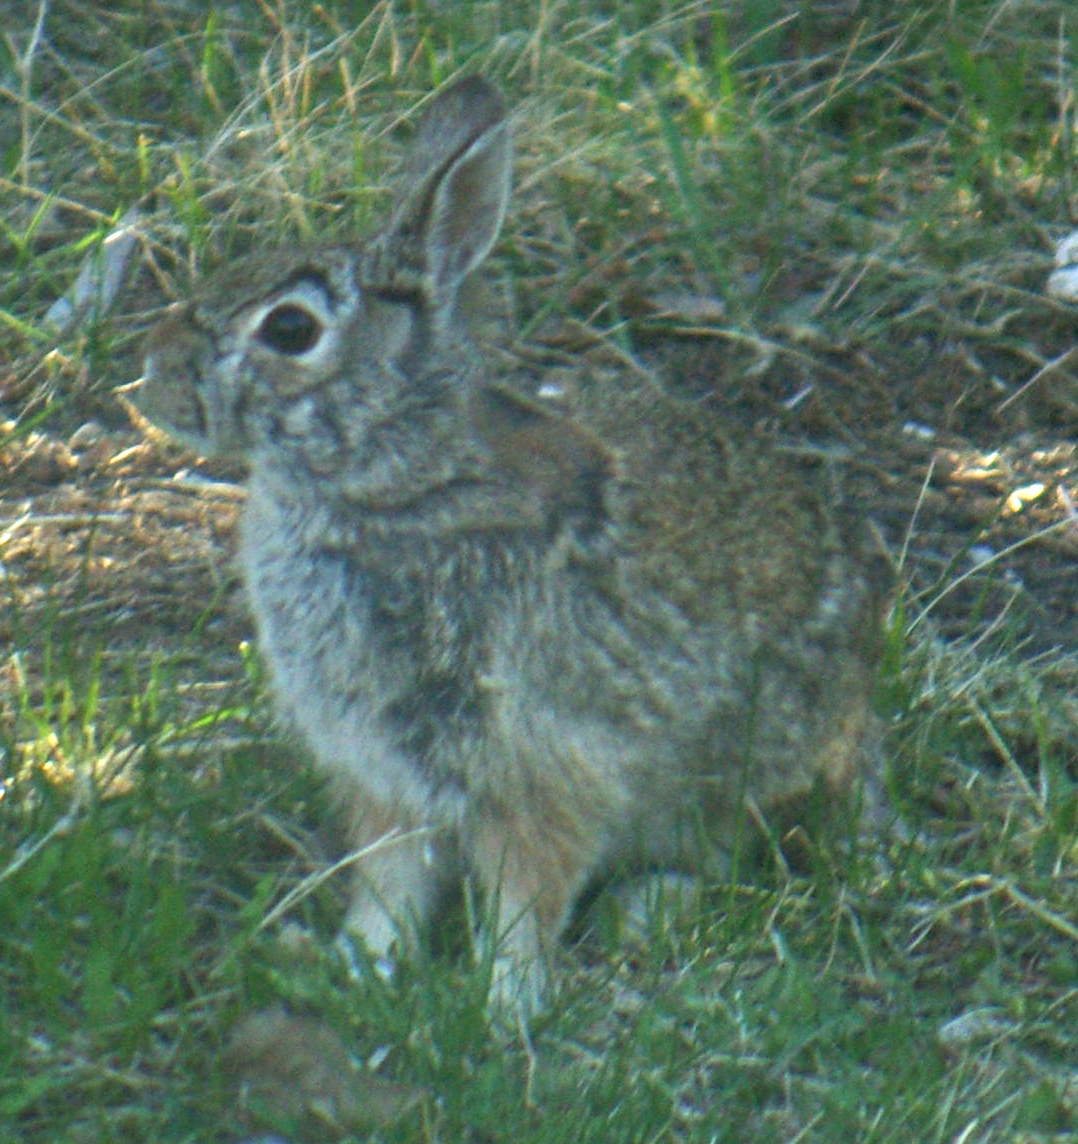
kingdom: Animalia
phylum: Chordata
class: Mammalia
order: Lagomorpha
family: Leporidae
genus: Sylvilagus
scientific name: Sylvilagus floridanus
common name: Eastern cottontail
